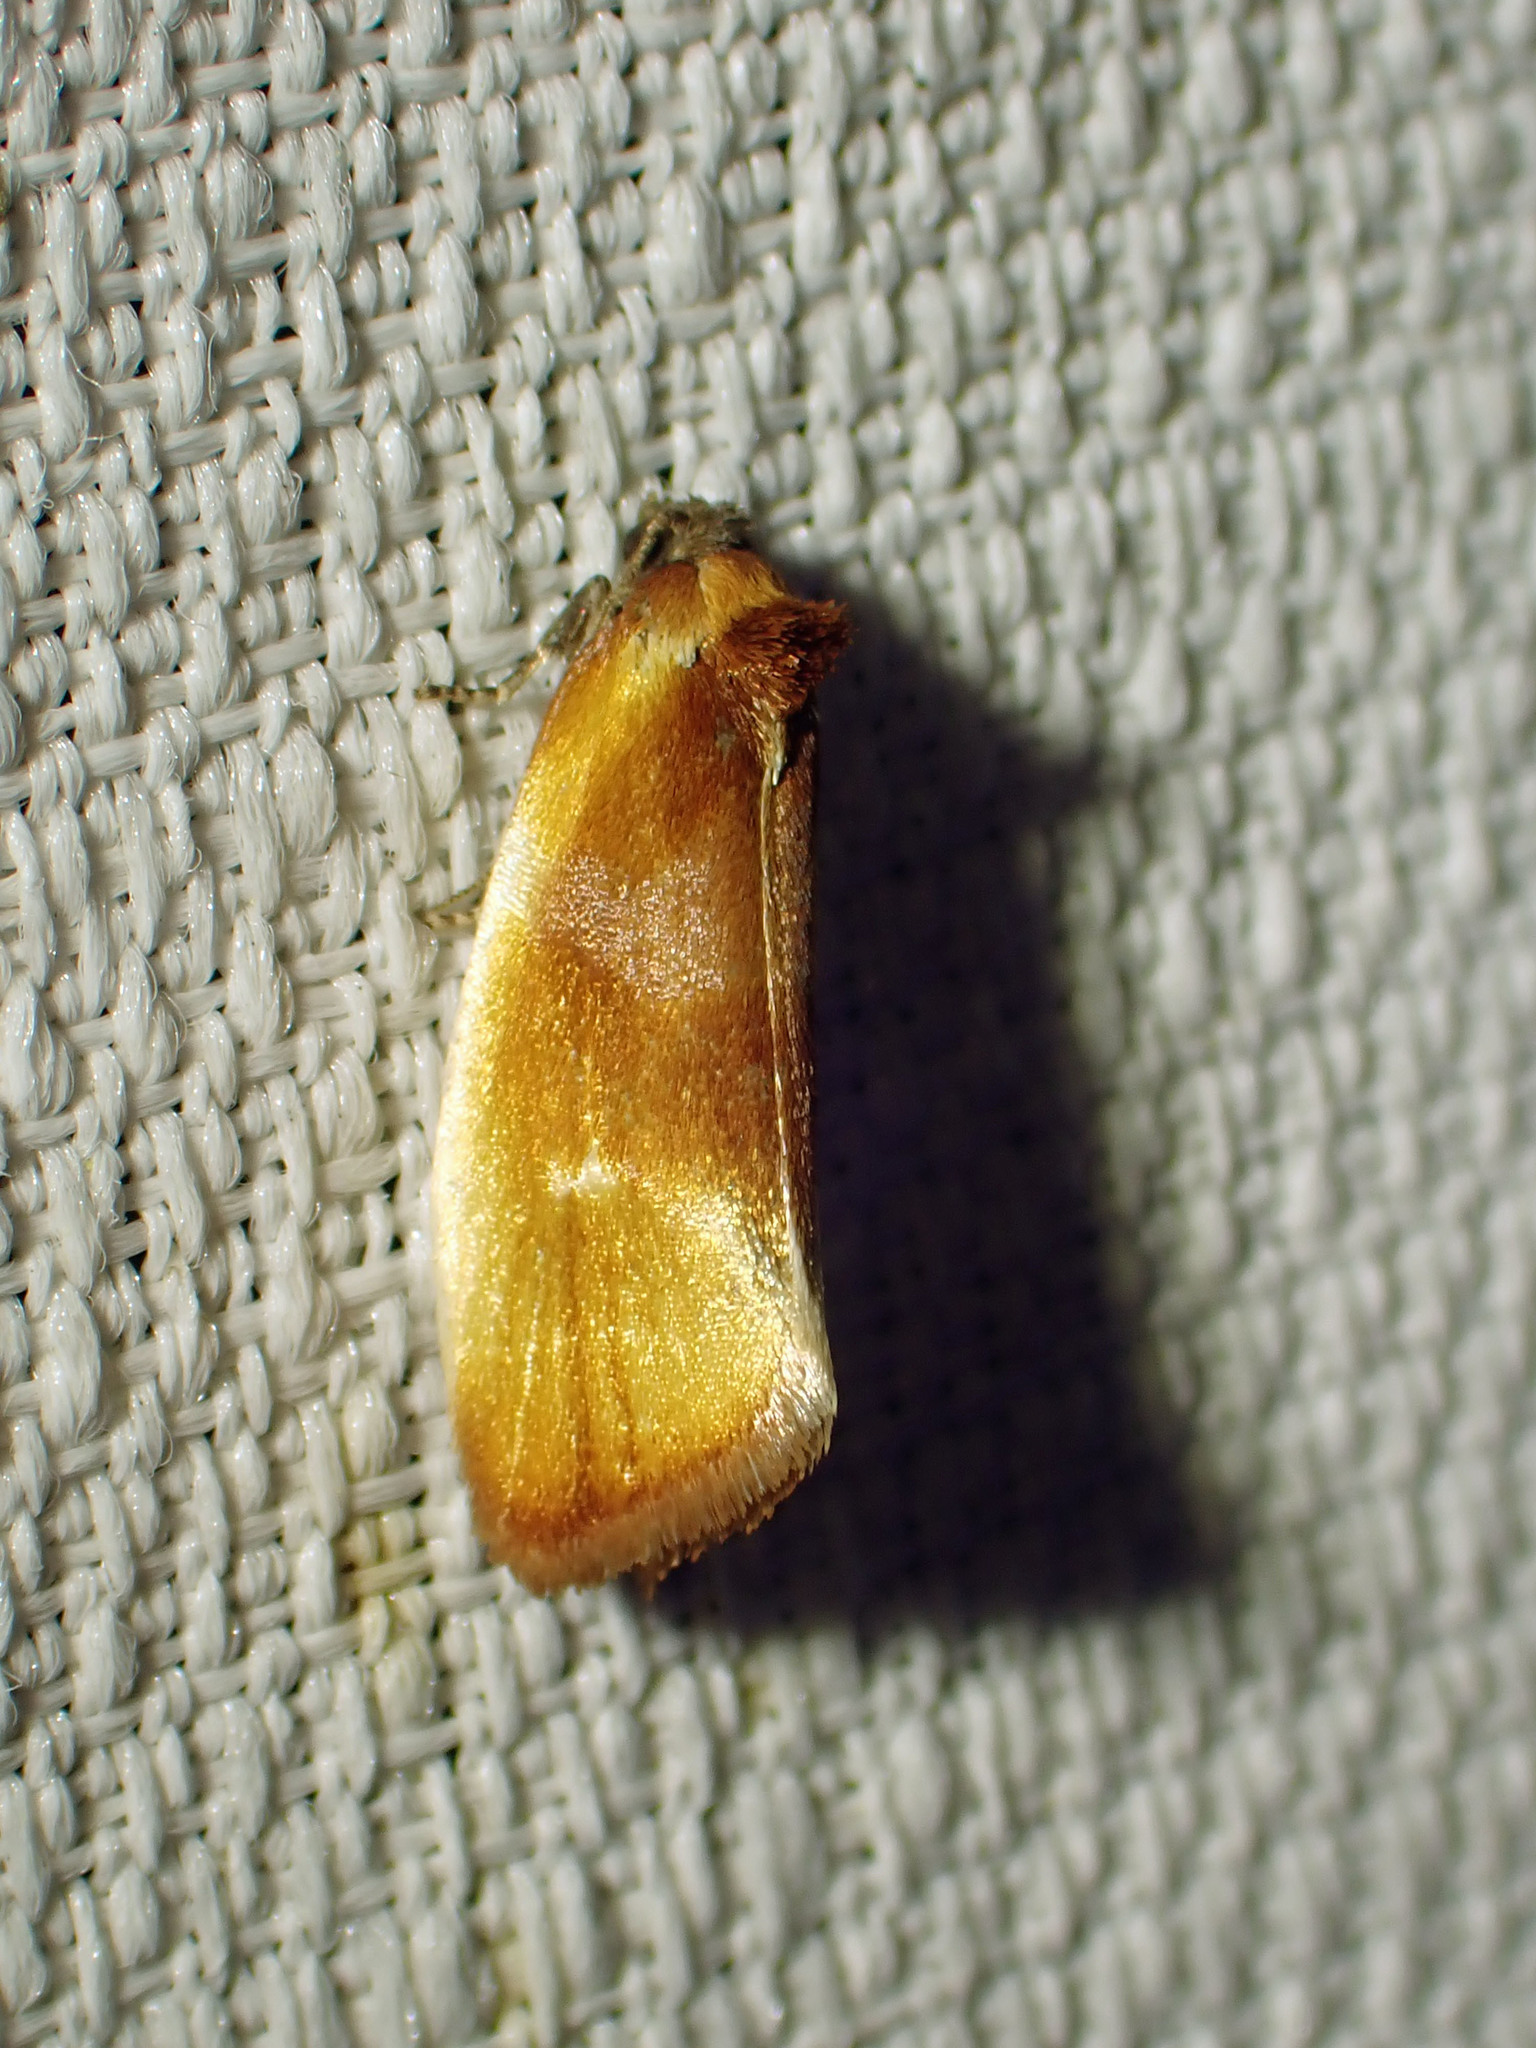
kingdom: Animalia
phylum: Arthropoda
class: Insecta
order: Lepidoptera
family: Tortricidae
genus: Eulia
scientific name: Eulia ministrana
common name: Brassy twist
